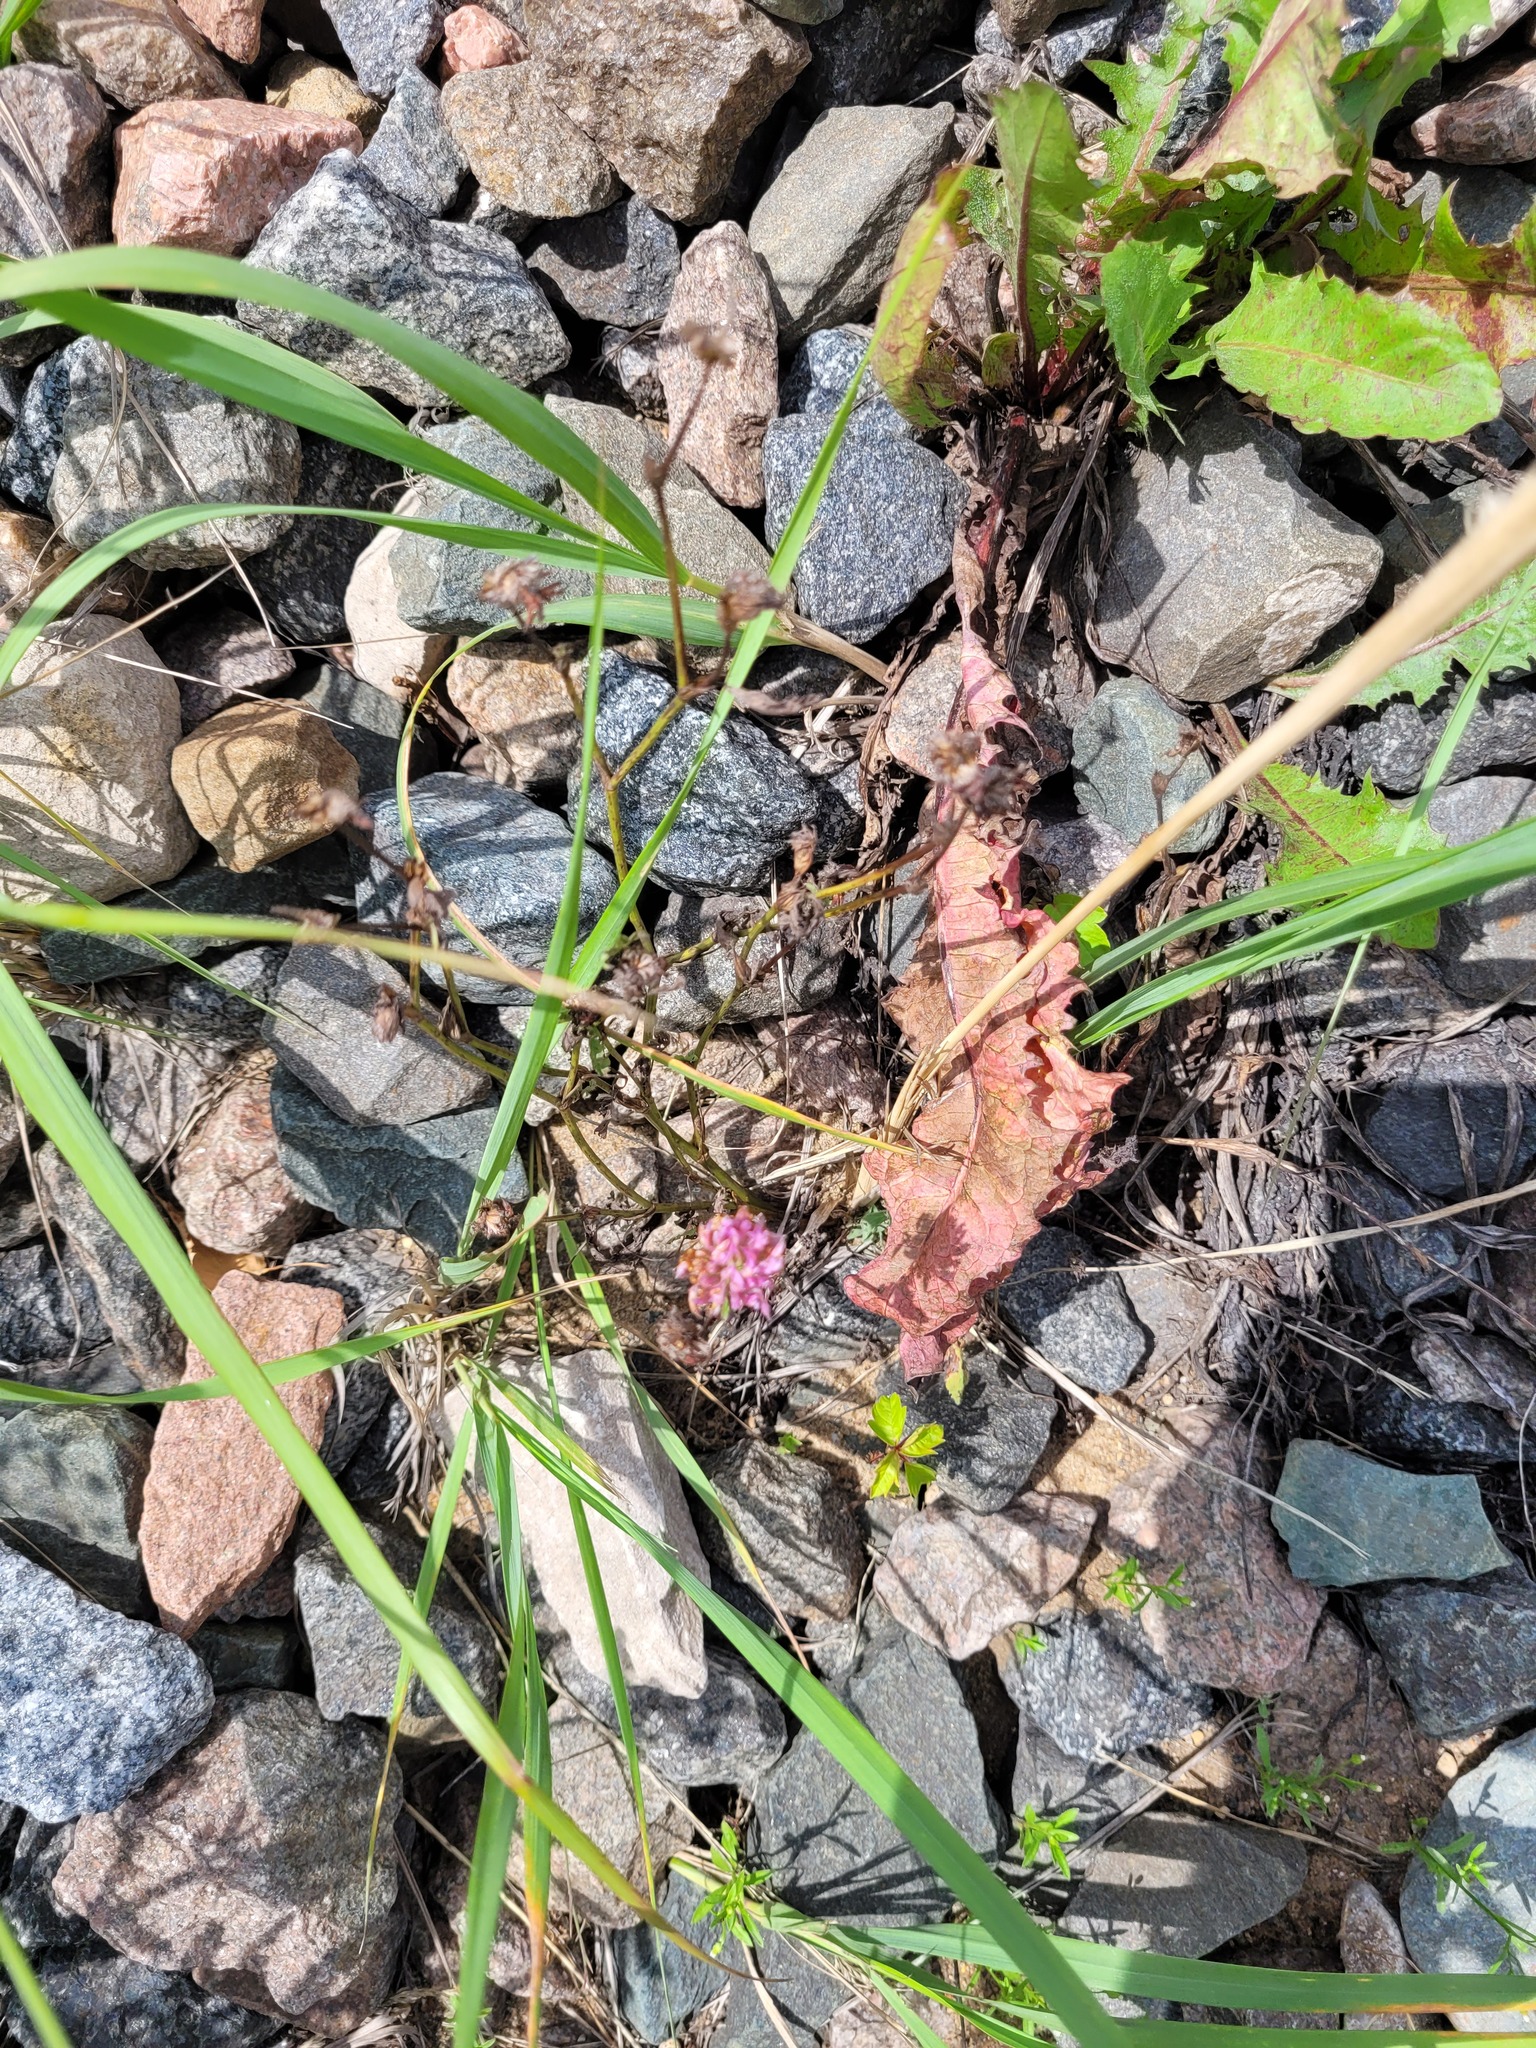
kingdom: Plantae
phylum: Tracheophyta
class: Magnoliopsida
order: Fabales
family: Fabaceae
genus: Trifolium
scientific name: Trifolium pratense
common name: Red clover
